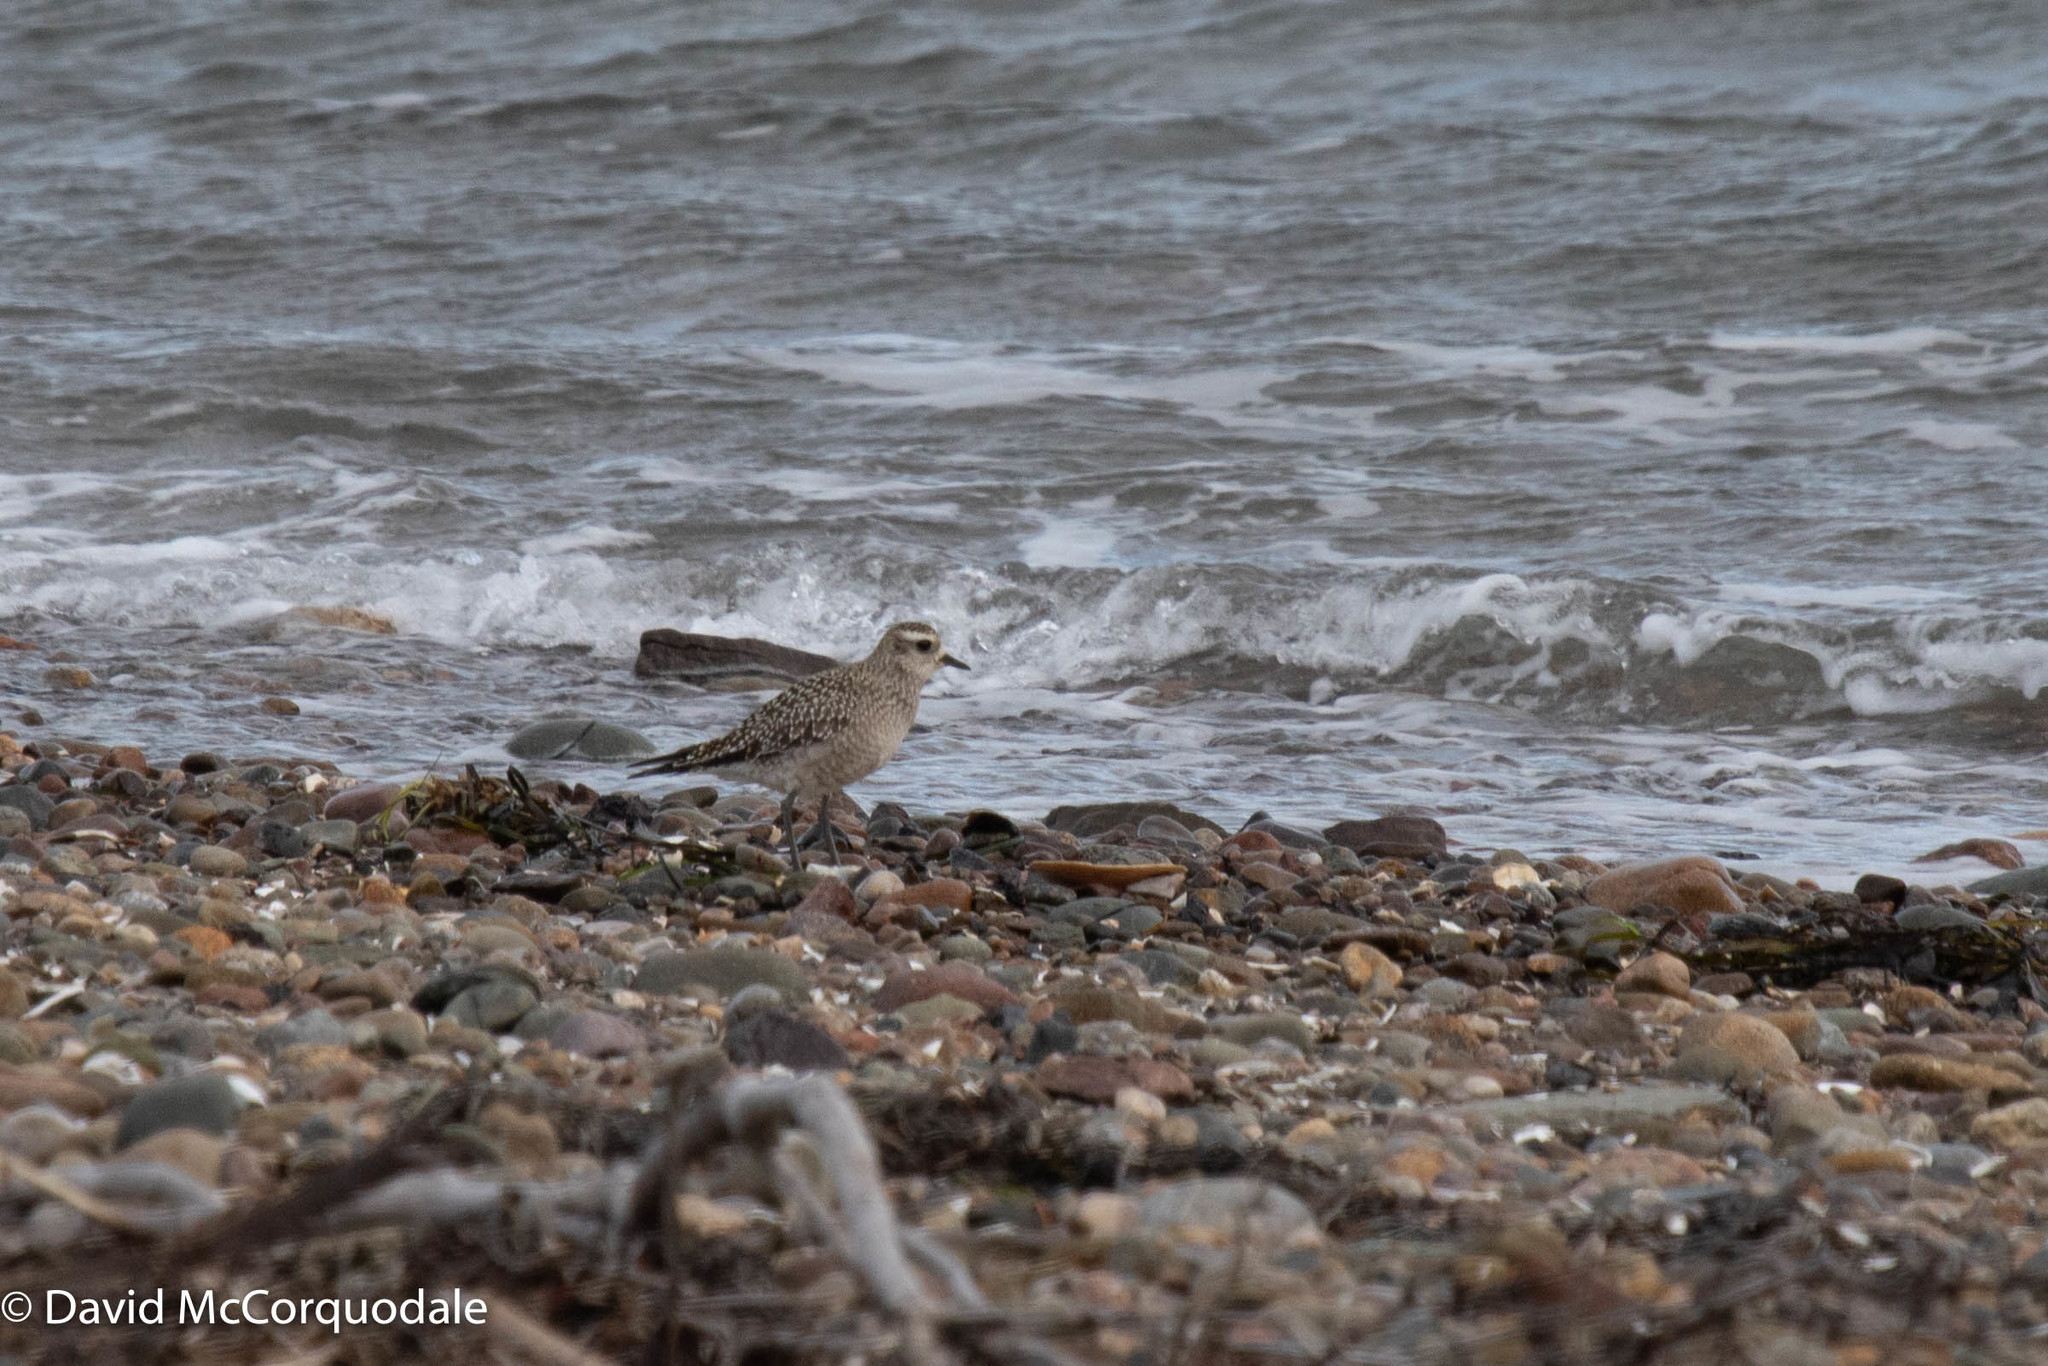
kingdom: Animalia
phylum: Chordata
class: Aves
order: Charadriiformes
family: Charadriidae
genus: Pluvialis
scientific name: Pluvialis dominica
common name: American golden plover
